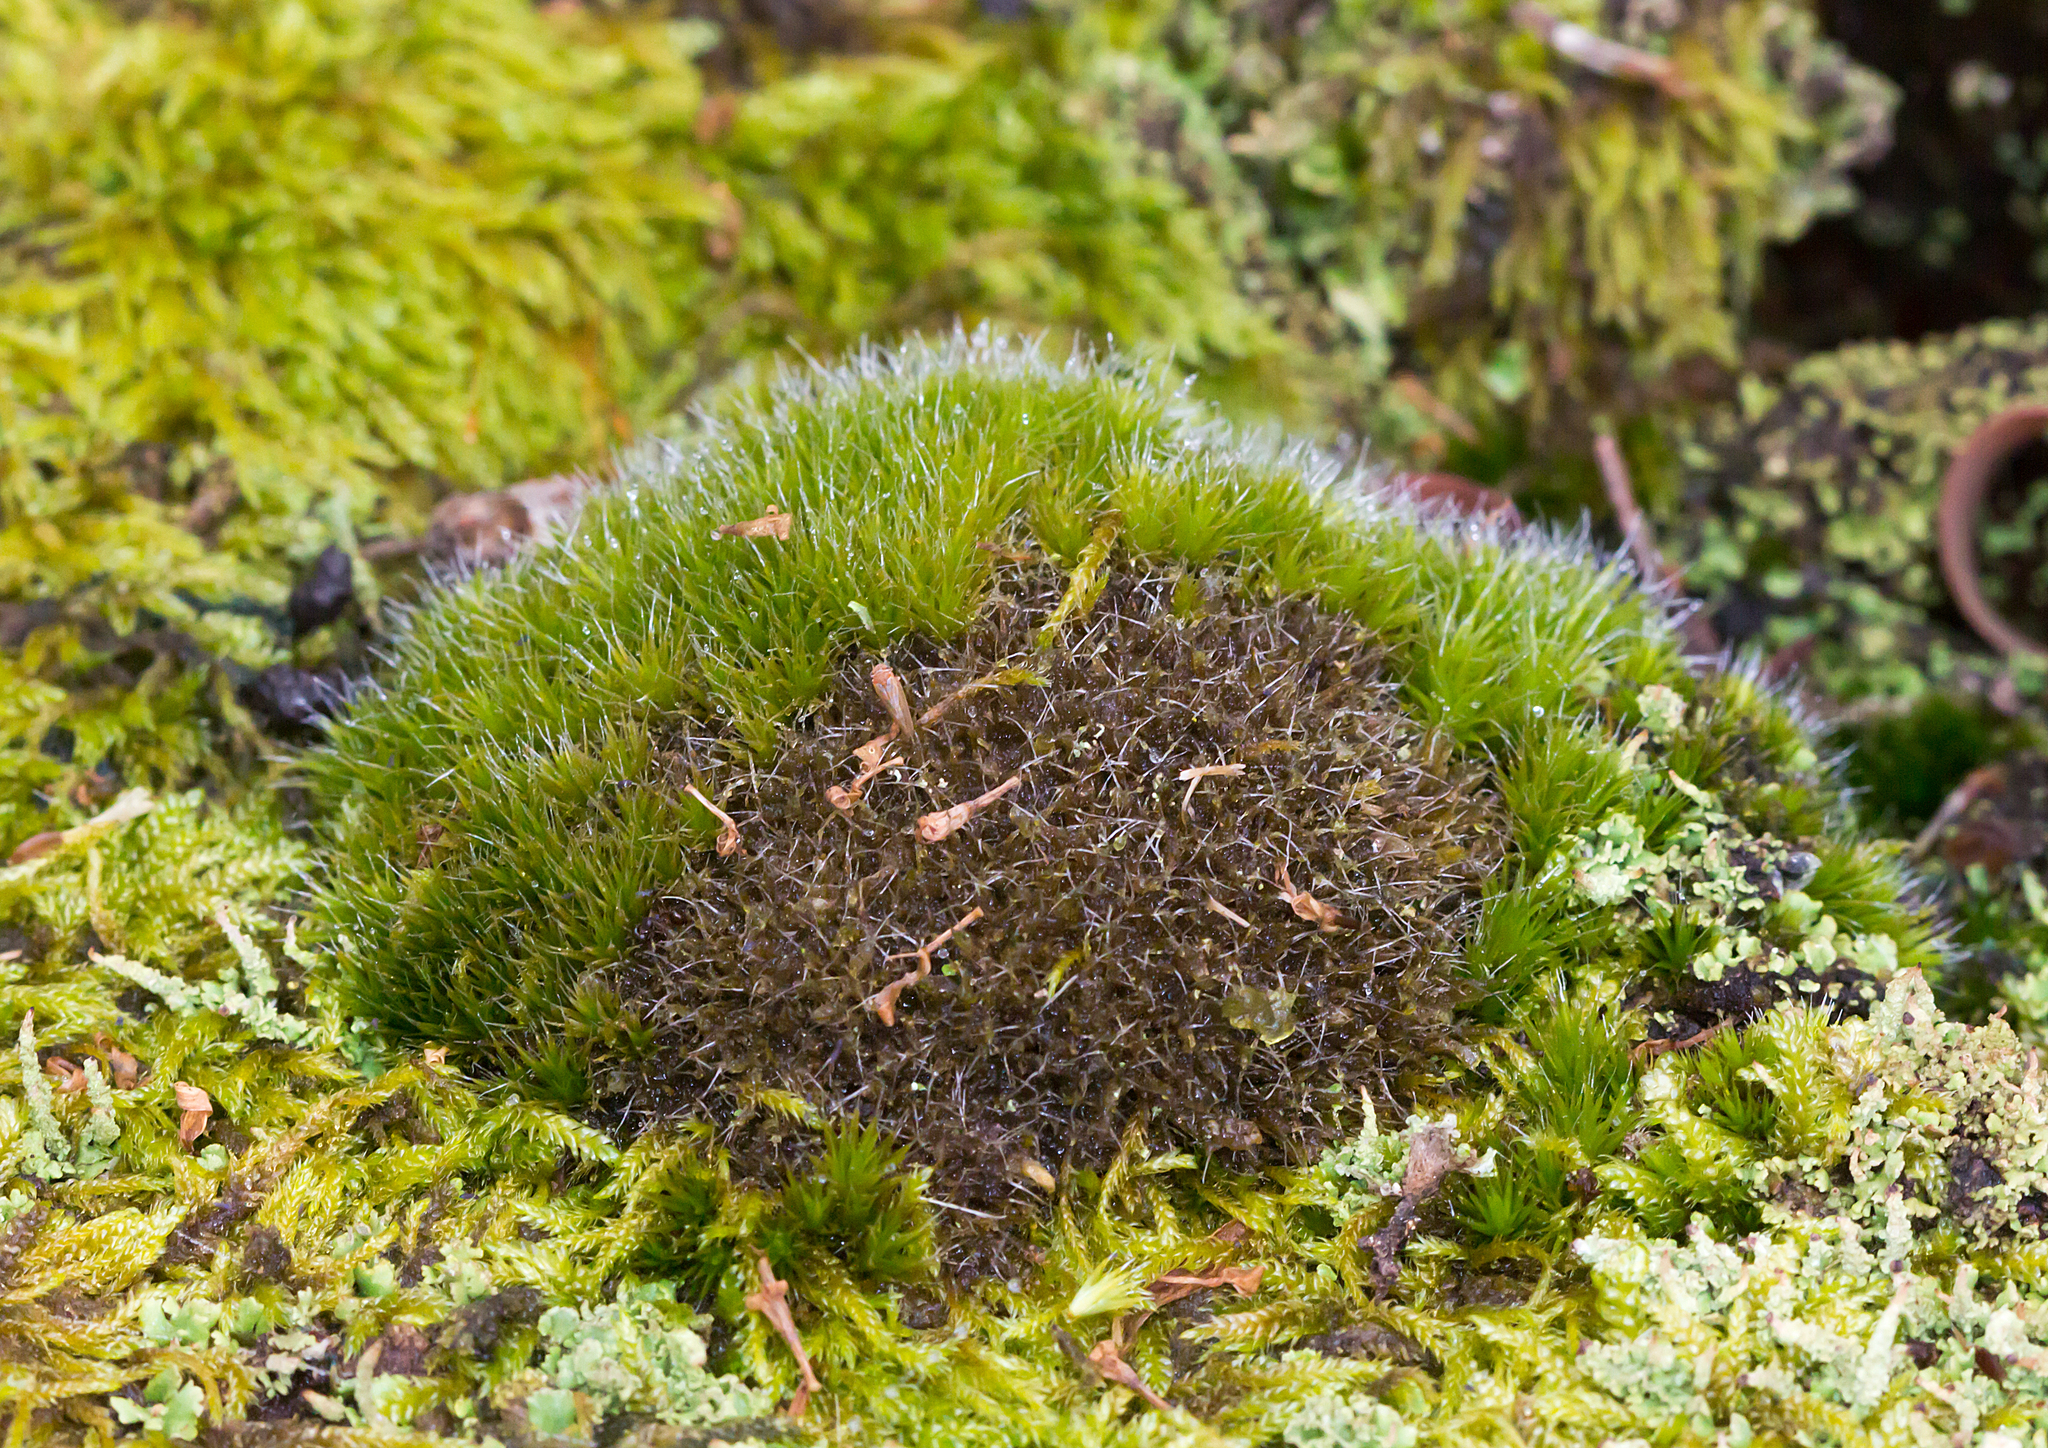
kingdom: Plantae
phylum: Bryophyta
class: Bryopsida
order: Dicranales
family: Leucobryaceae
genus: Campylopus
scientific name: Campylopus introflexus
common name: Heath star moss
